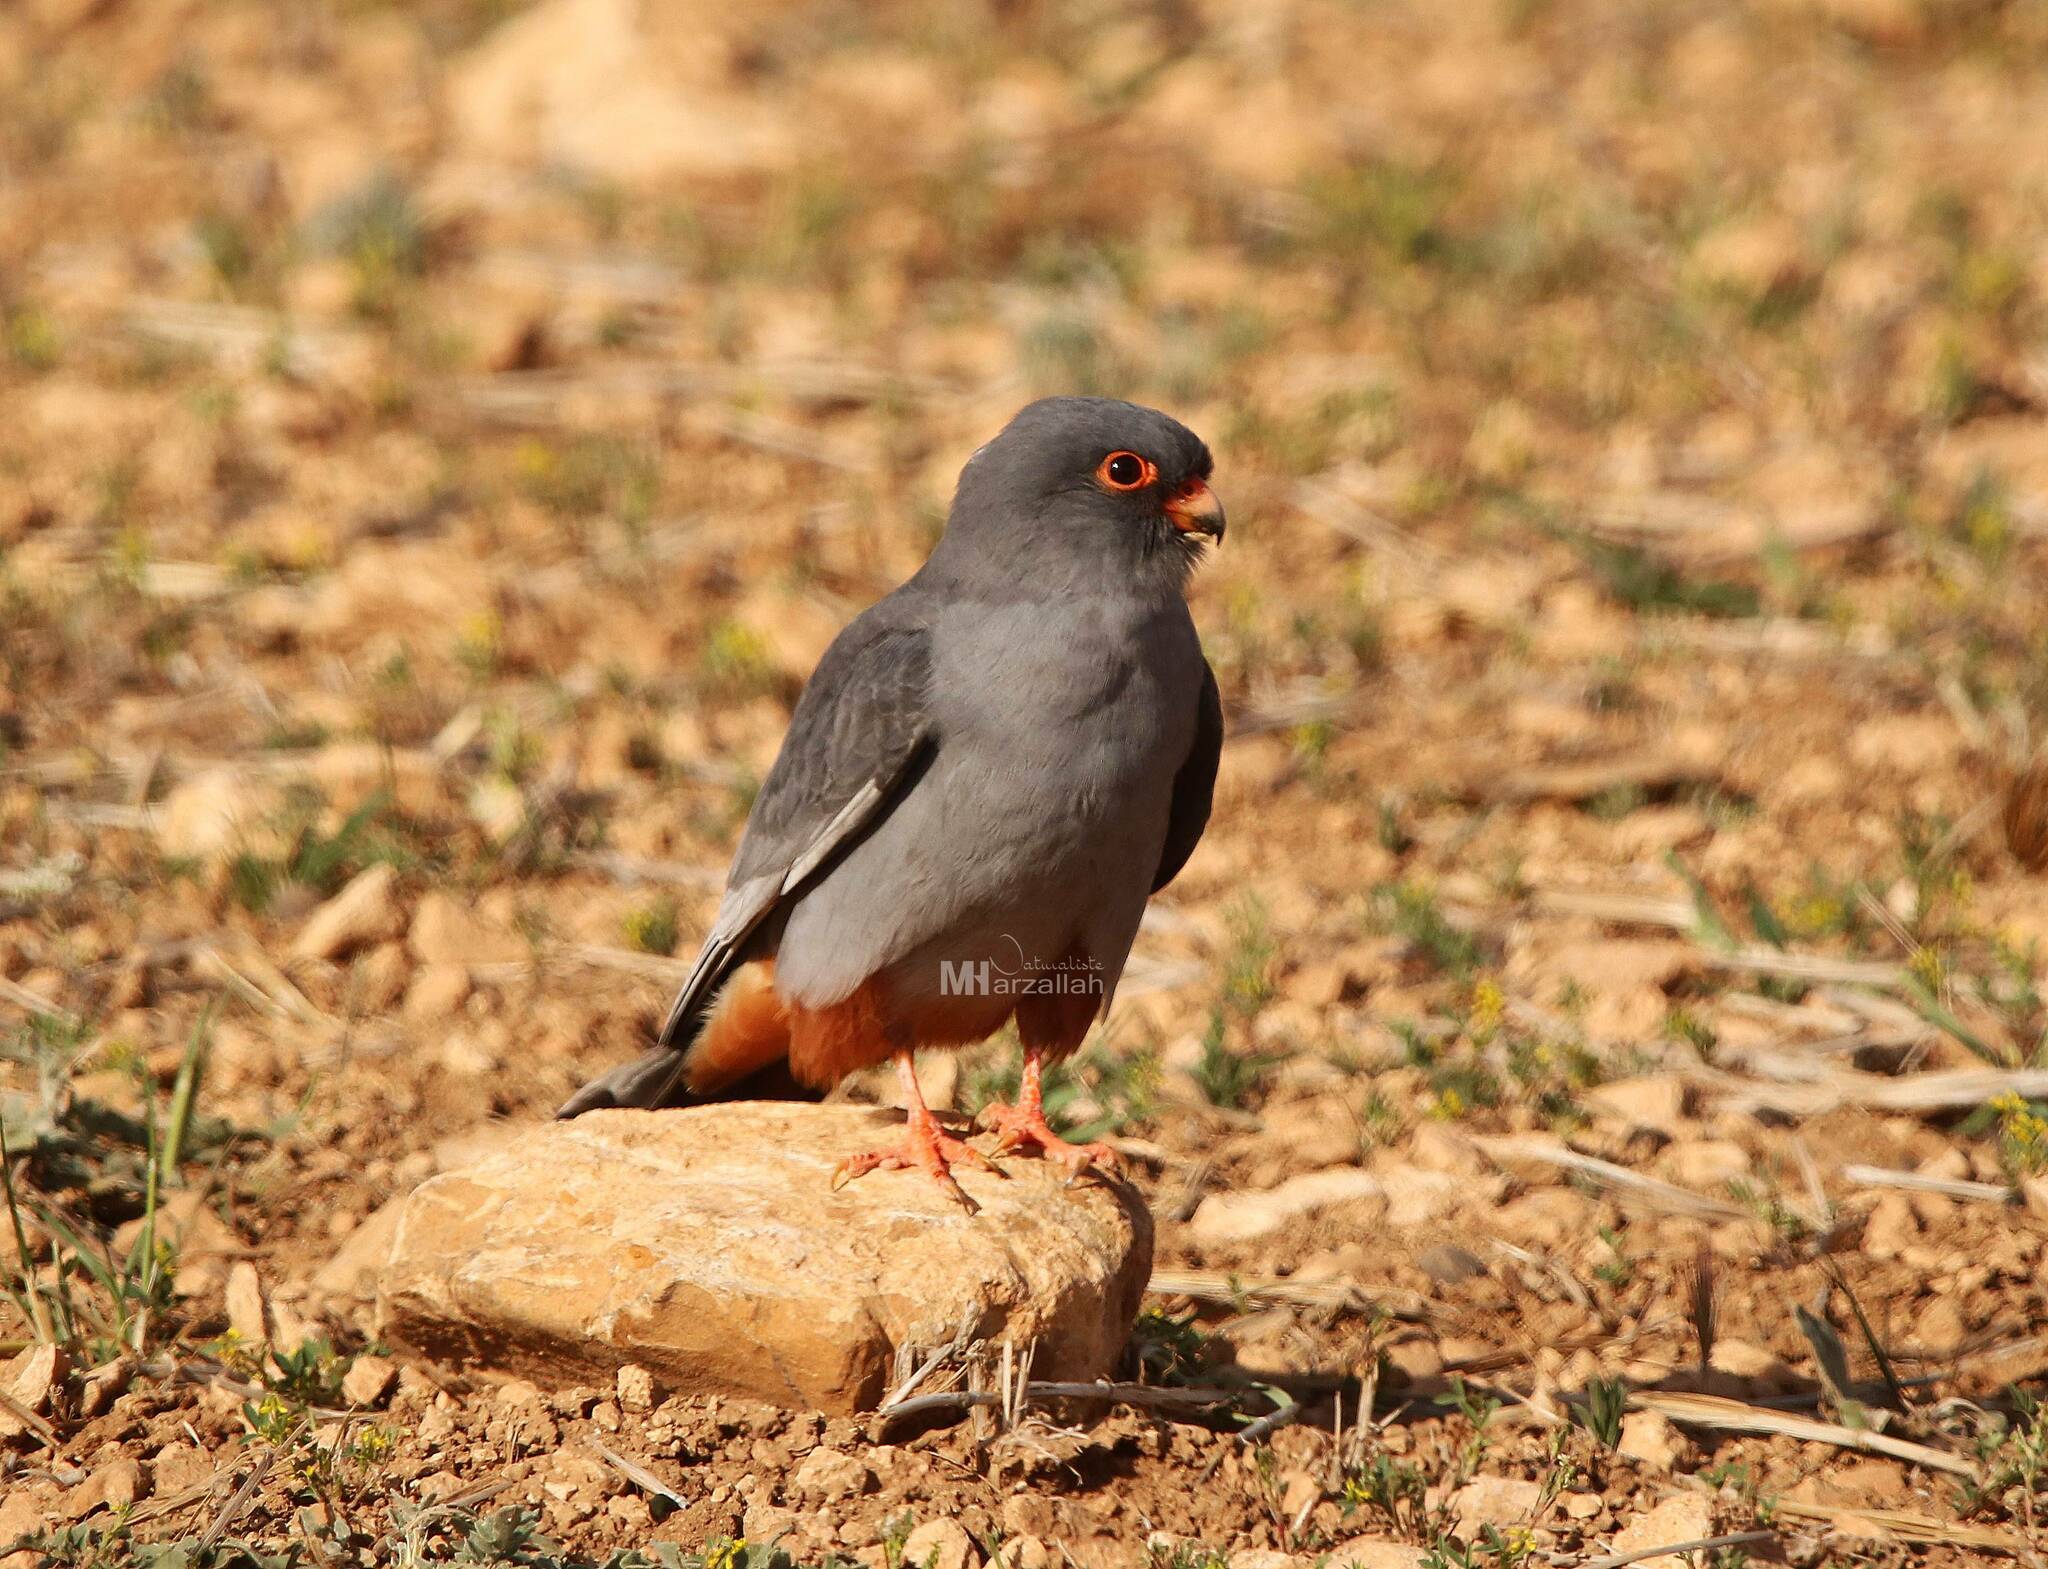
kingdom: Animalia
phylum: Chordata
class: Aves
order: Falconiformes
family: Falconidae
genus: Falco
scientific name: Falco vespertinus
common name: Red-footed falcon
